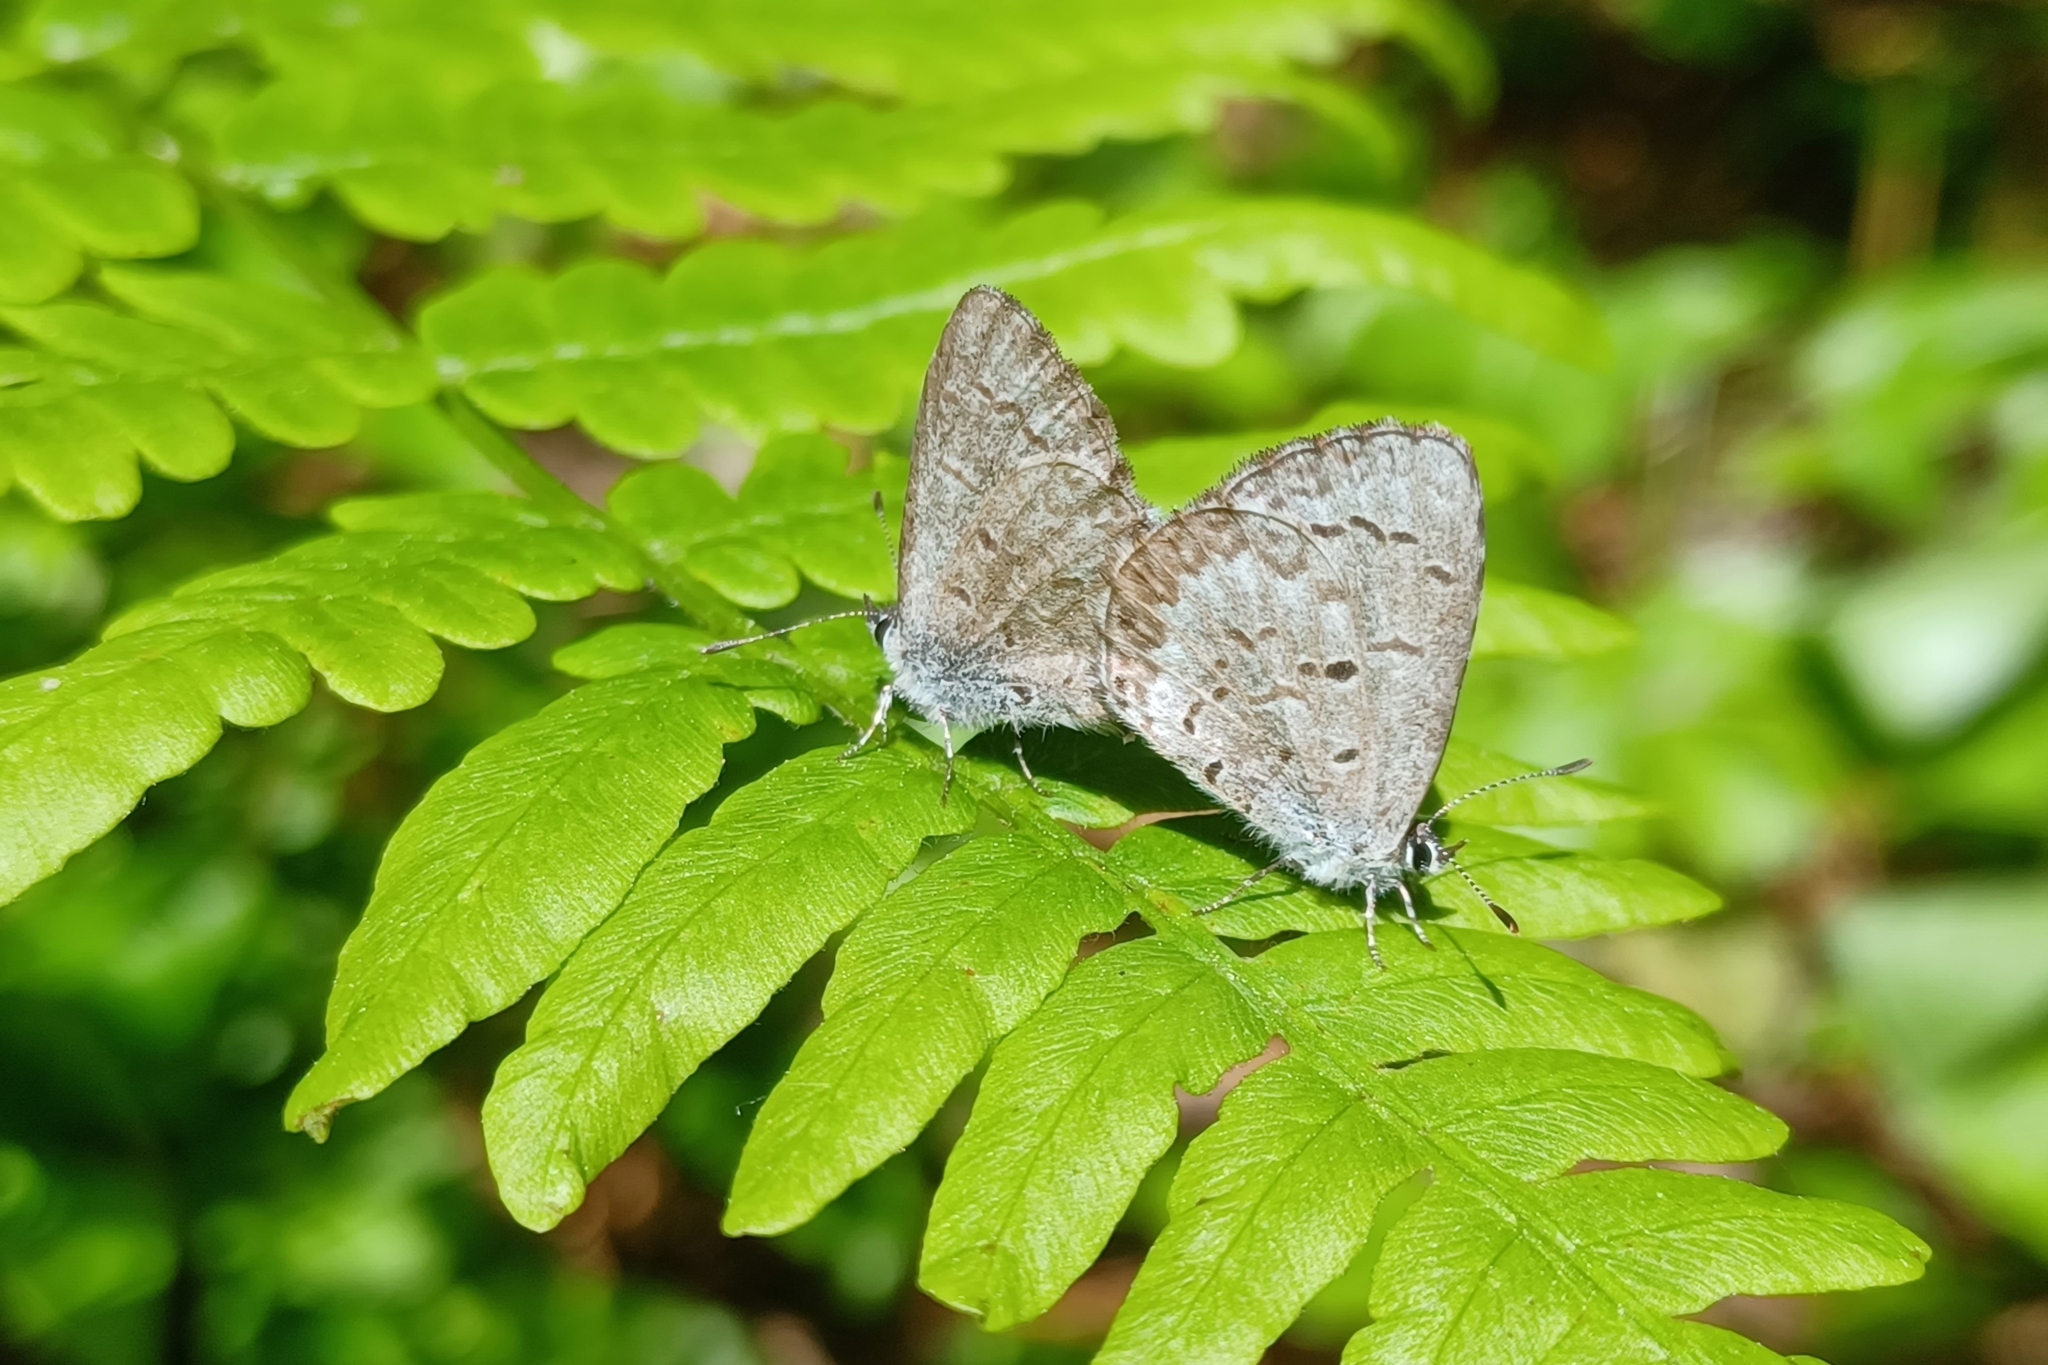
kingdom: Animalia
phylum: Arthropoda
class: Insecta
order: Lepidoptera
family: Lycaenidae
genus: Celastrina
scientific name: Celastrina lucia
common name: Lucia azure
